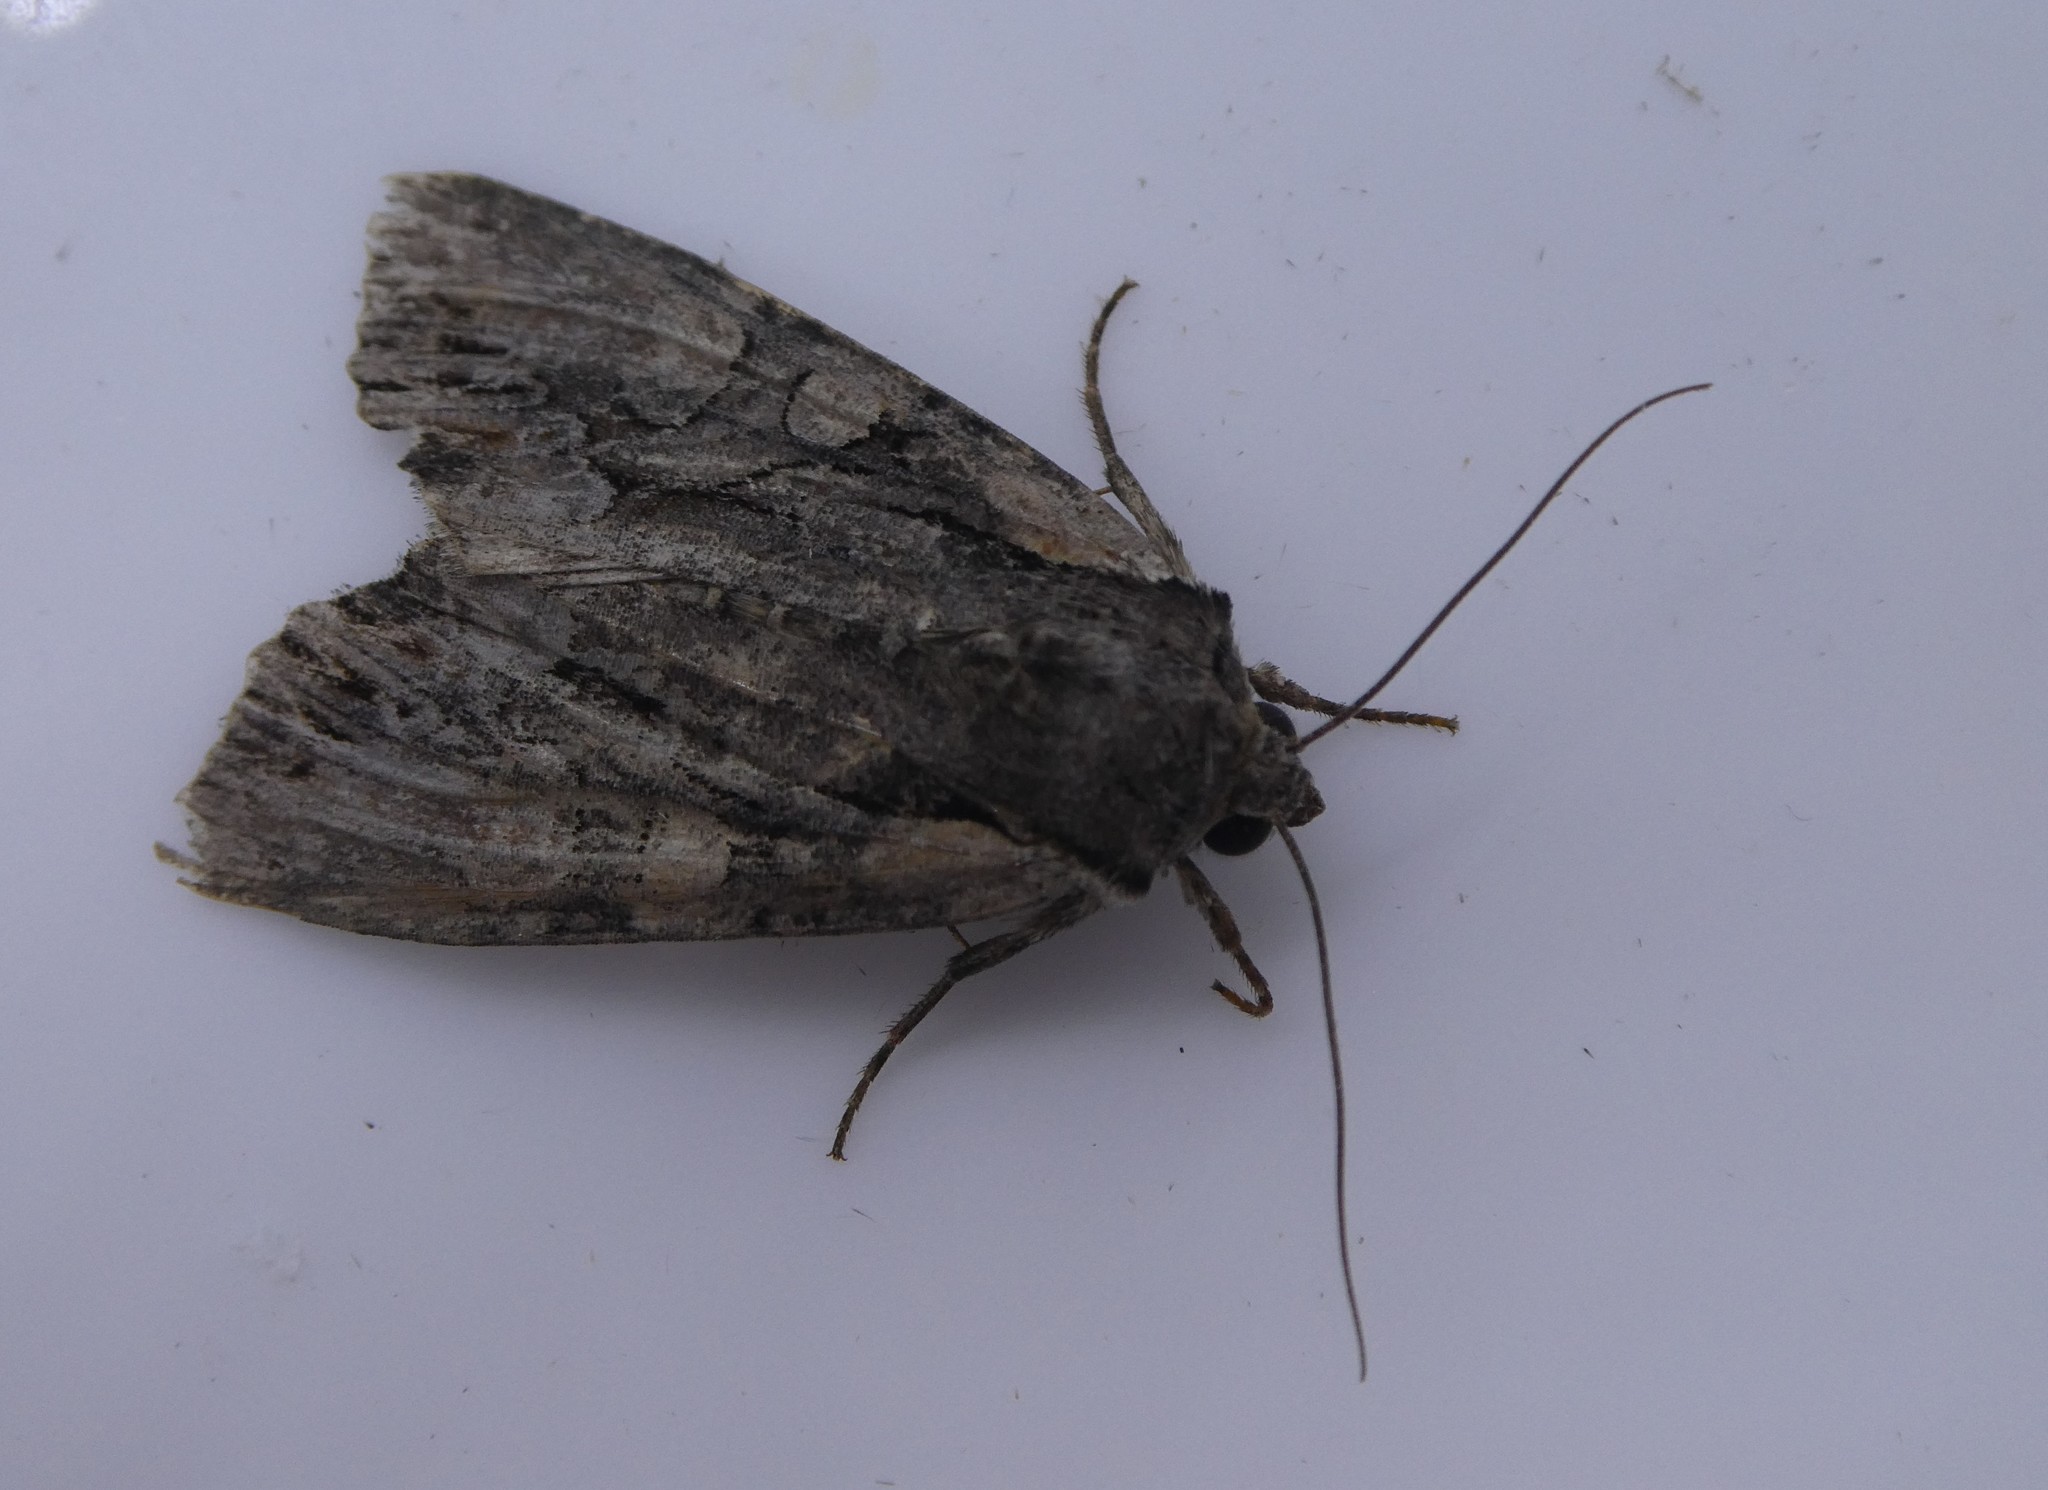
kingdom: Animalia
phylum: Arthropoda
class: Insecta
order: Lepidoptera
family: Noctuidae
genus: Lacanobia
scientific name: Lacanobia subjuncta
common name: Speckled cutworm moth
